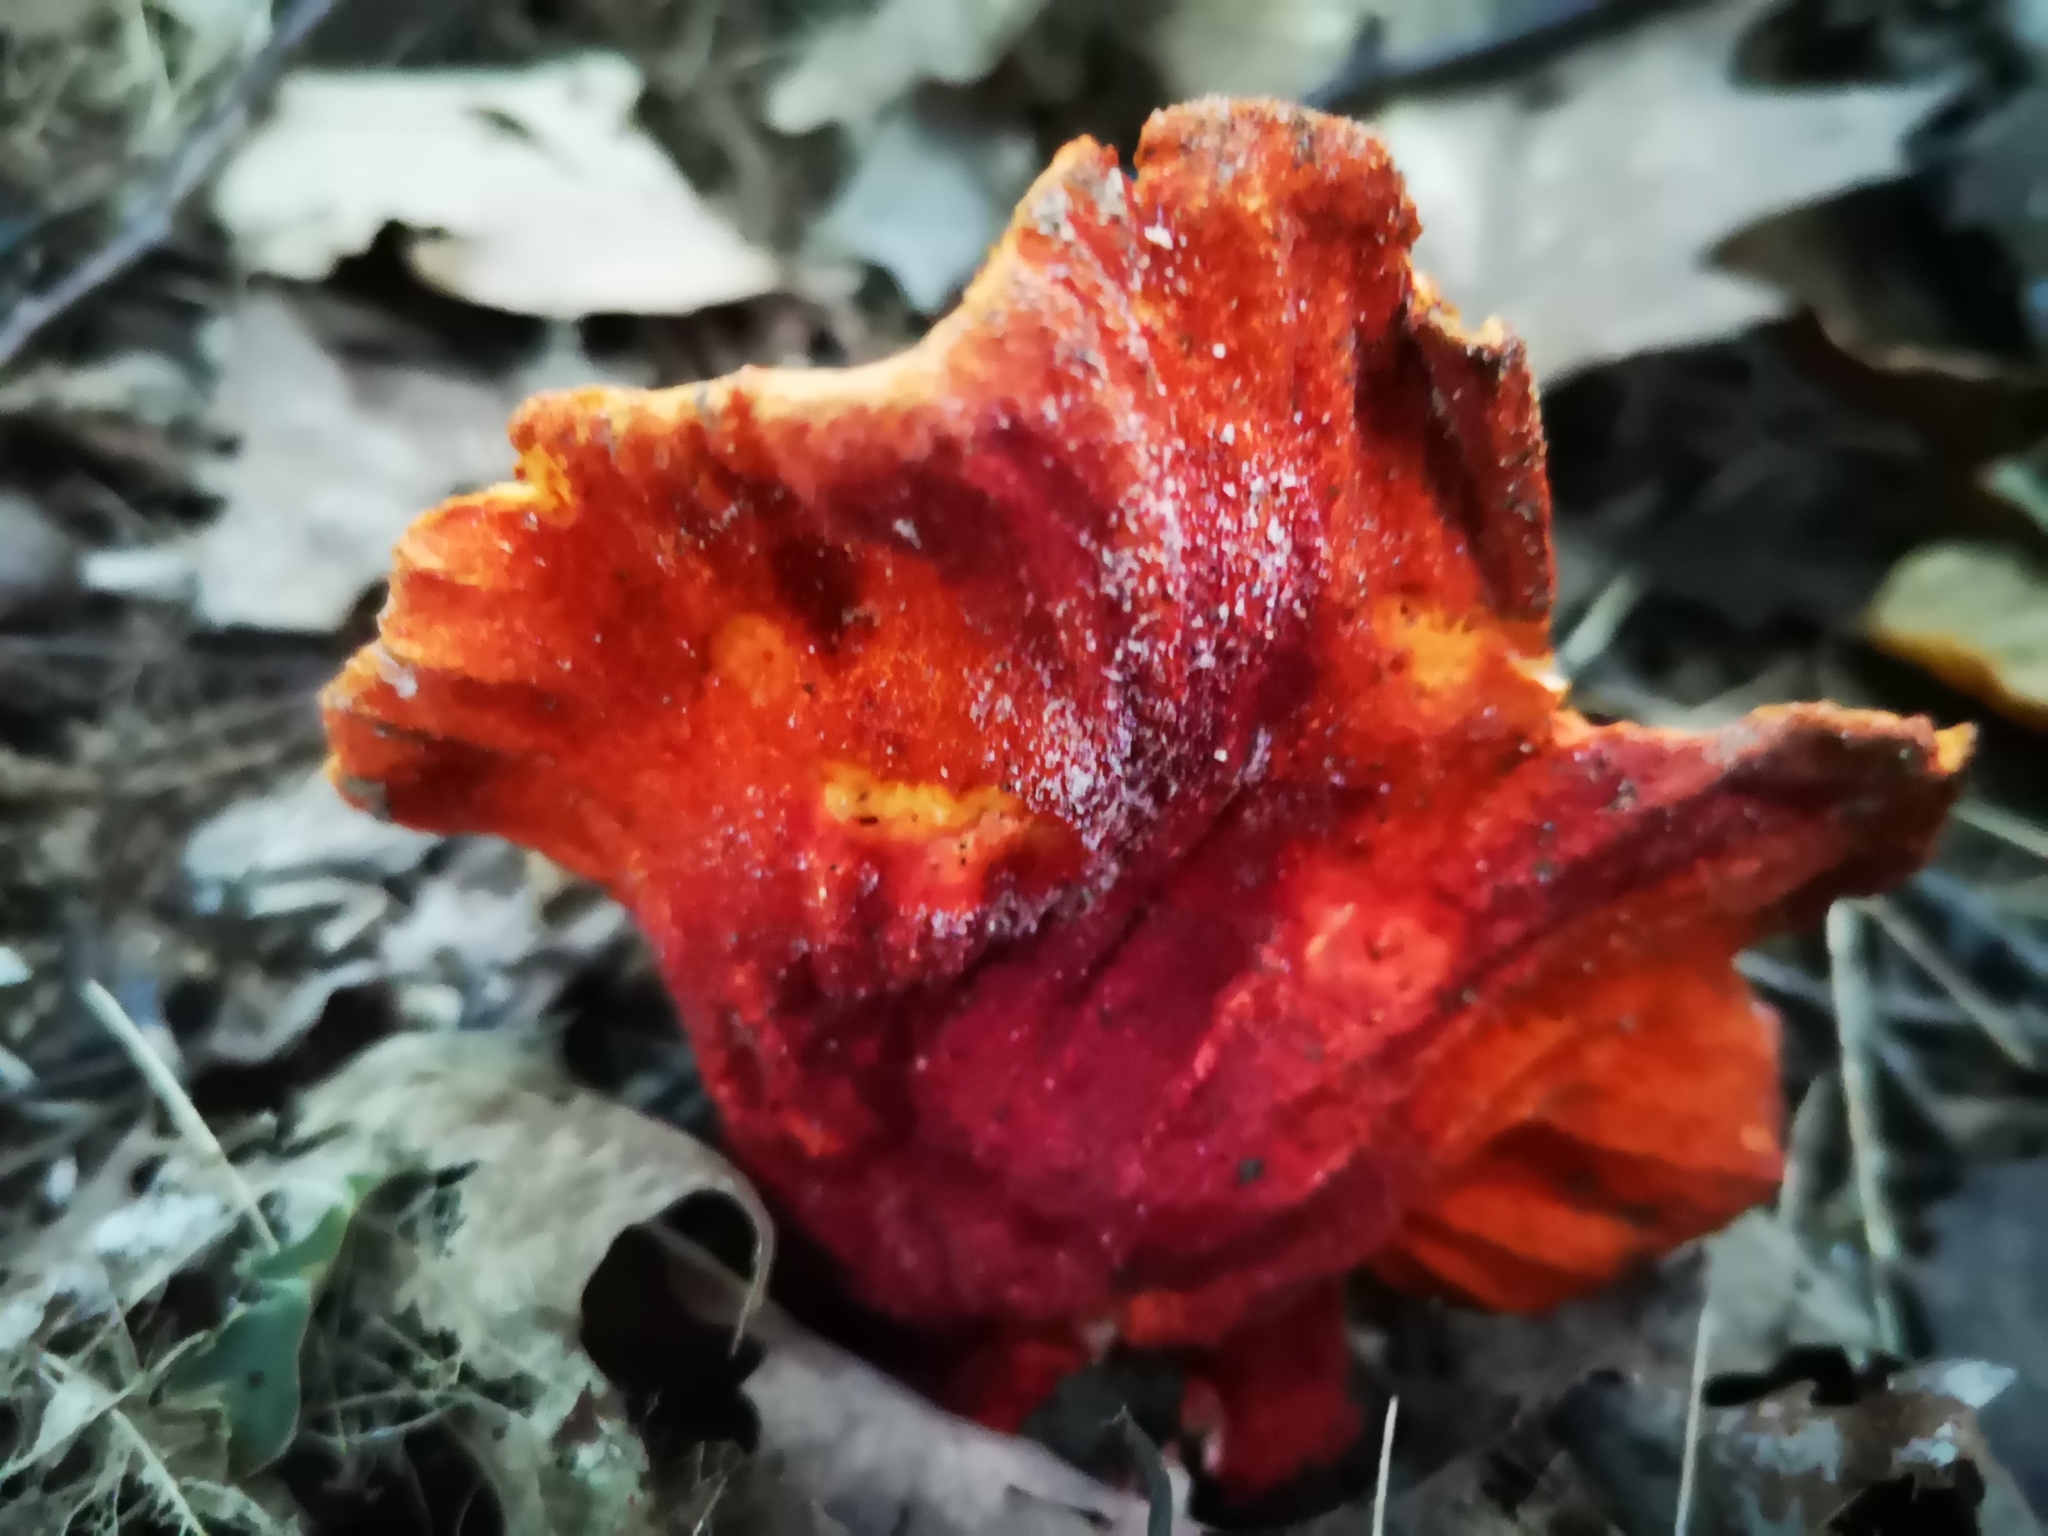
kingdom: Fungi
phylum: Ascomycota
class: Sordariomycetes
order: Hypocreales
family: Hypocreaceae
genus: Hypomyces
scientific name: Hypomyces lactifluorum
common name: Lobster mushroom
